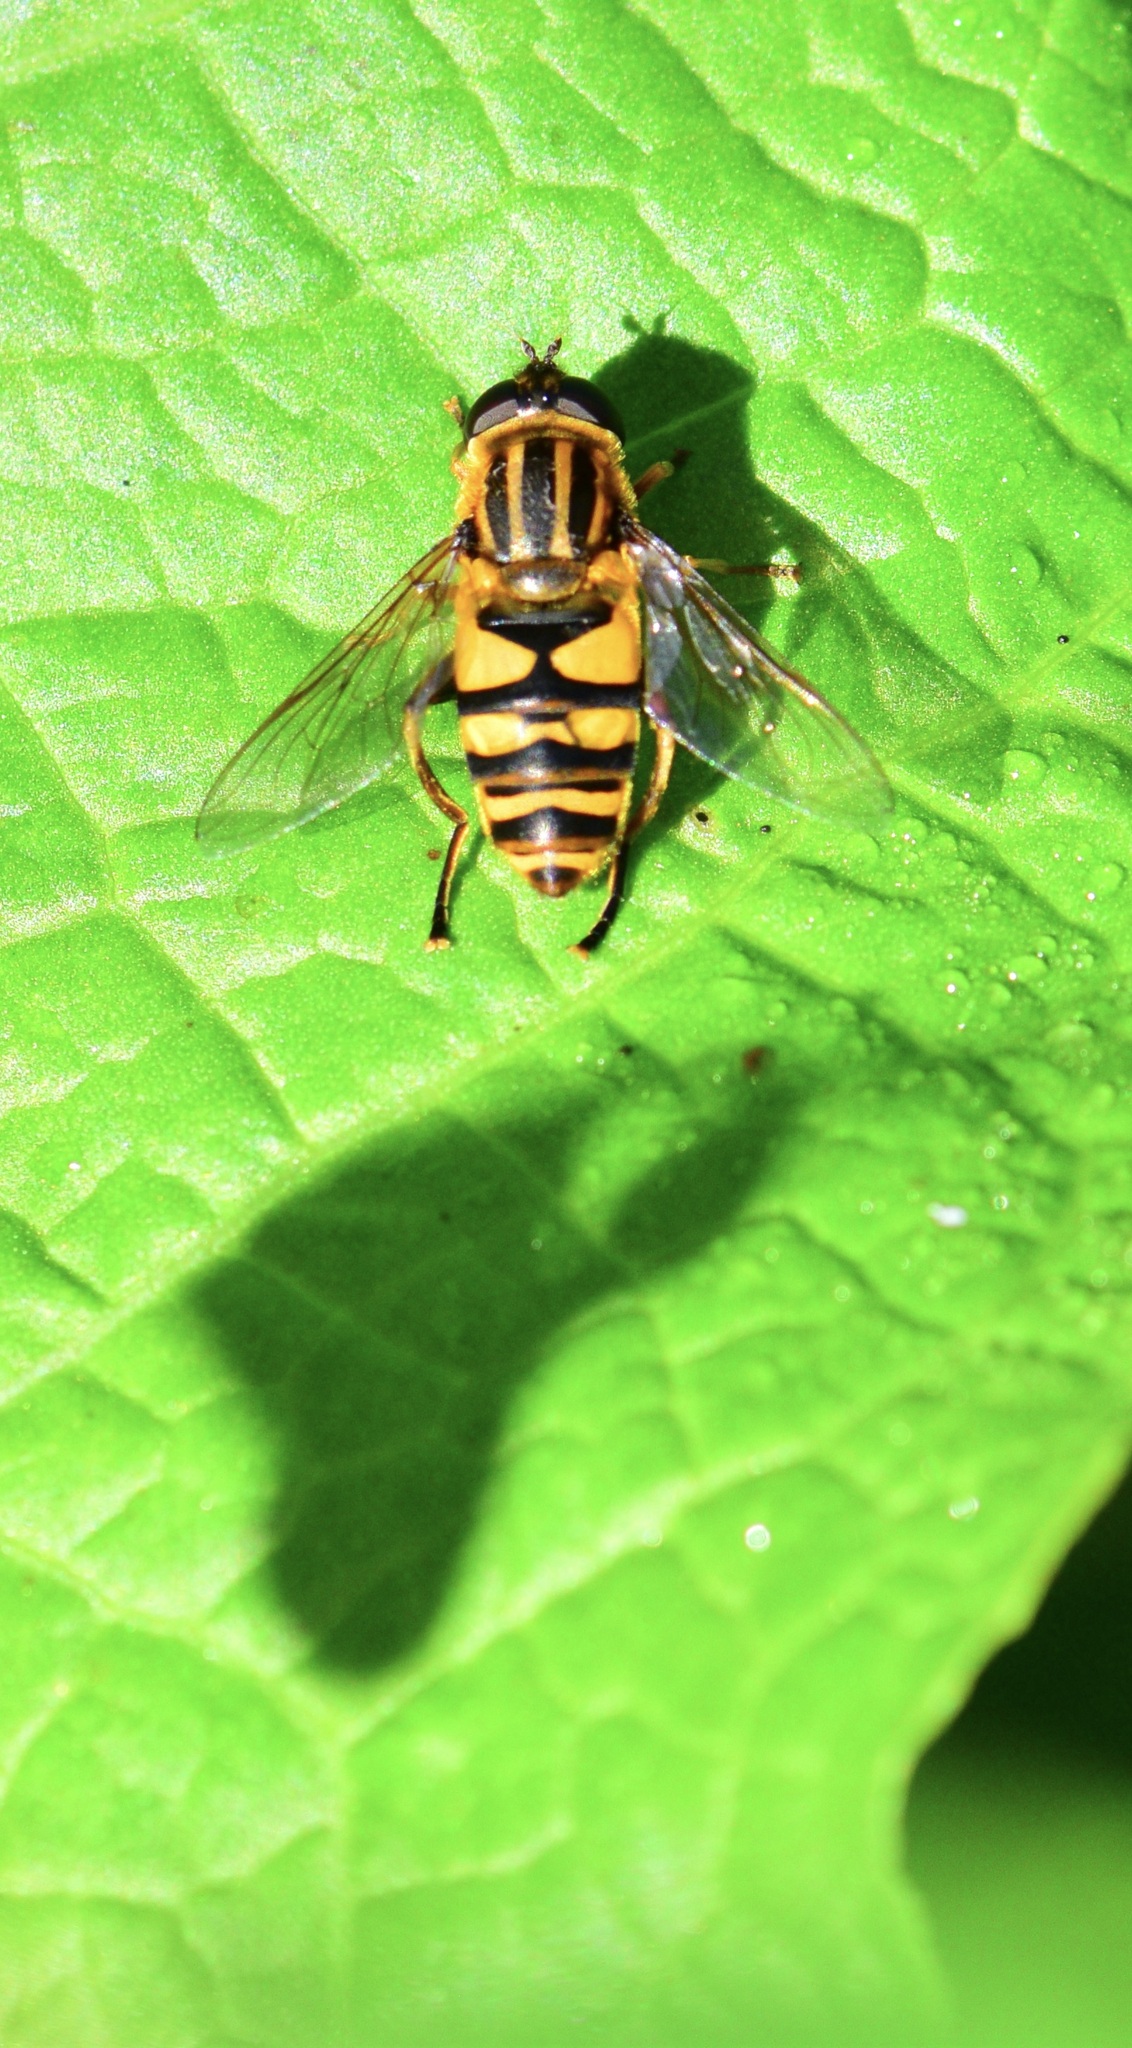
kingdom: Animalia
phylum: Arthropoda
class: Insecta
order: Diptera
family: Syrphidae
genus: Helophilus
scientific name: Helophilus fasciatus
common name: Narrow-headed marsh fly
